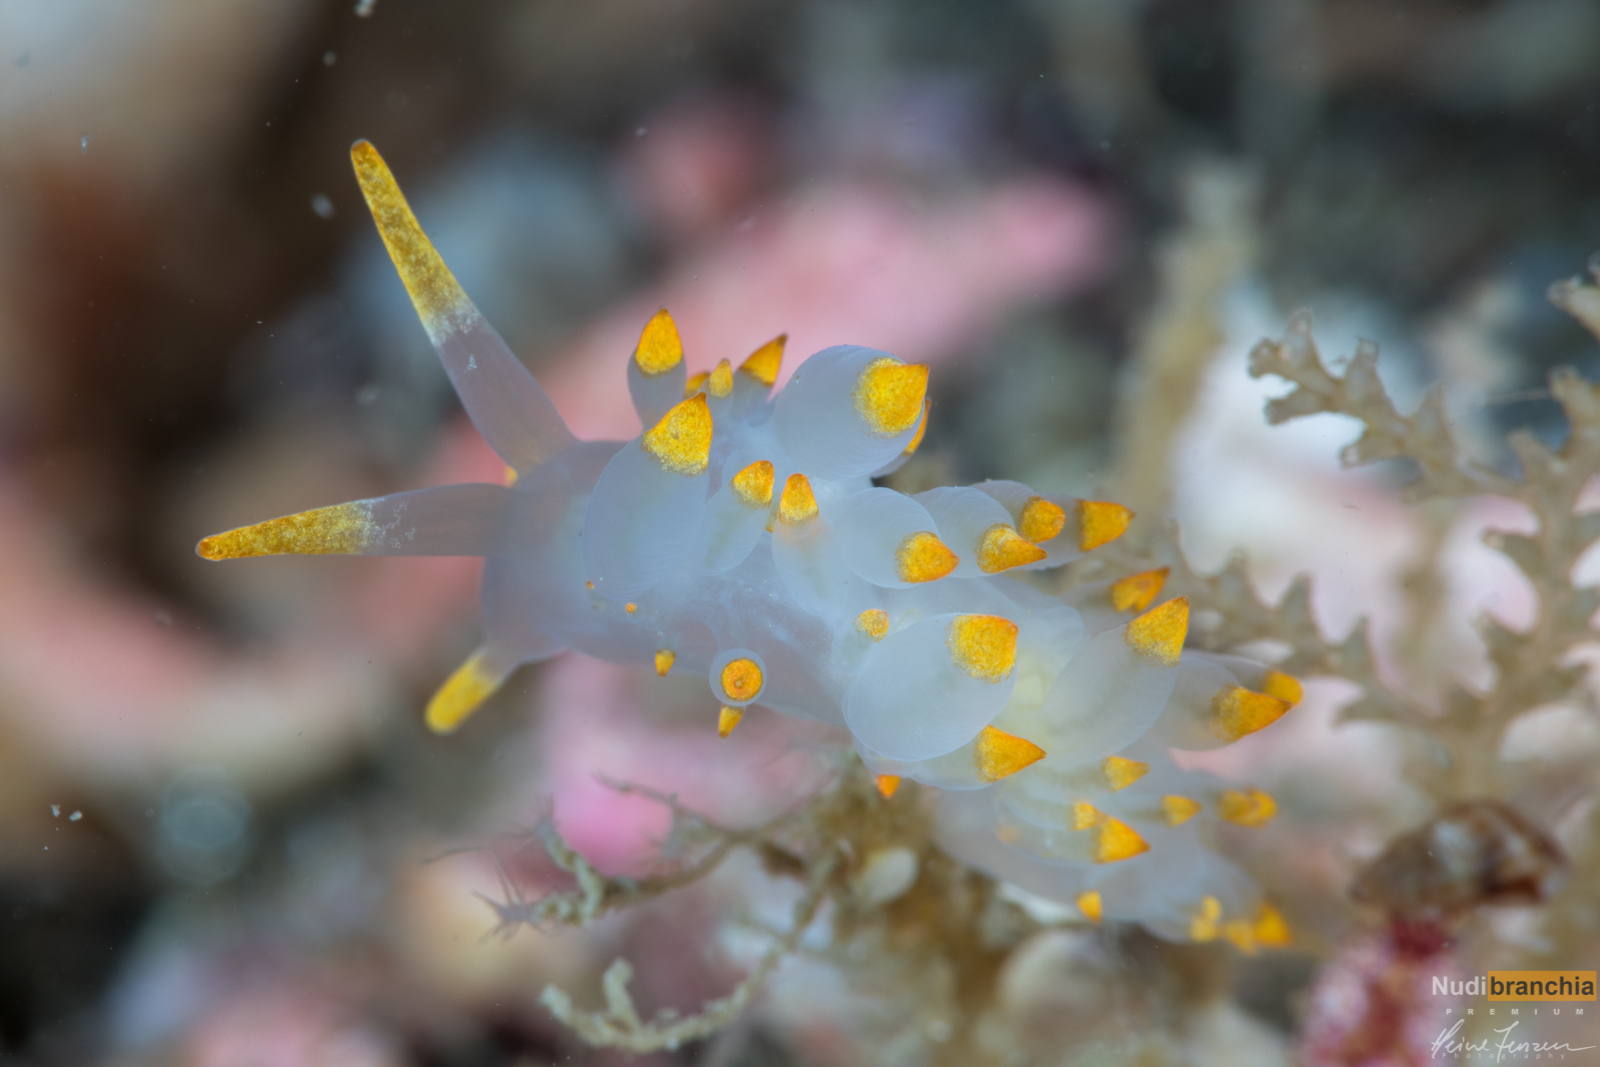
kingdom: Animalia
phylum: Mollusca
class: Gastropoda
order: Nudibranchia
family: Eubranchidae
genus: Amphorina
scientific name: Amphorina farrani
